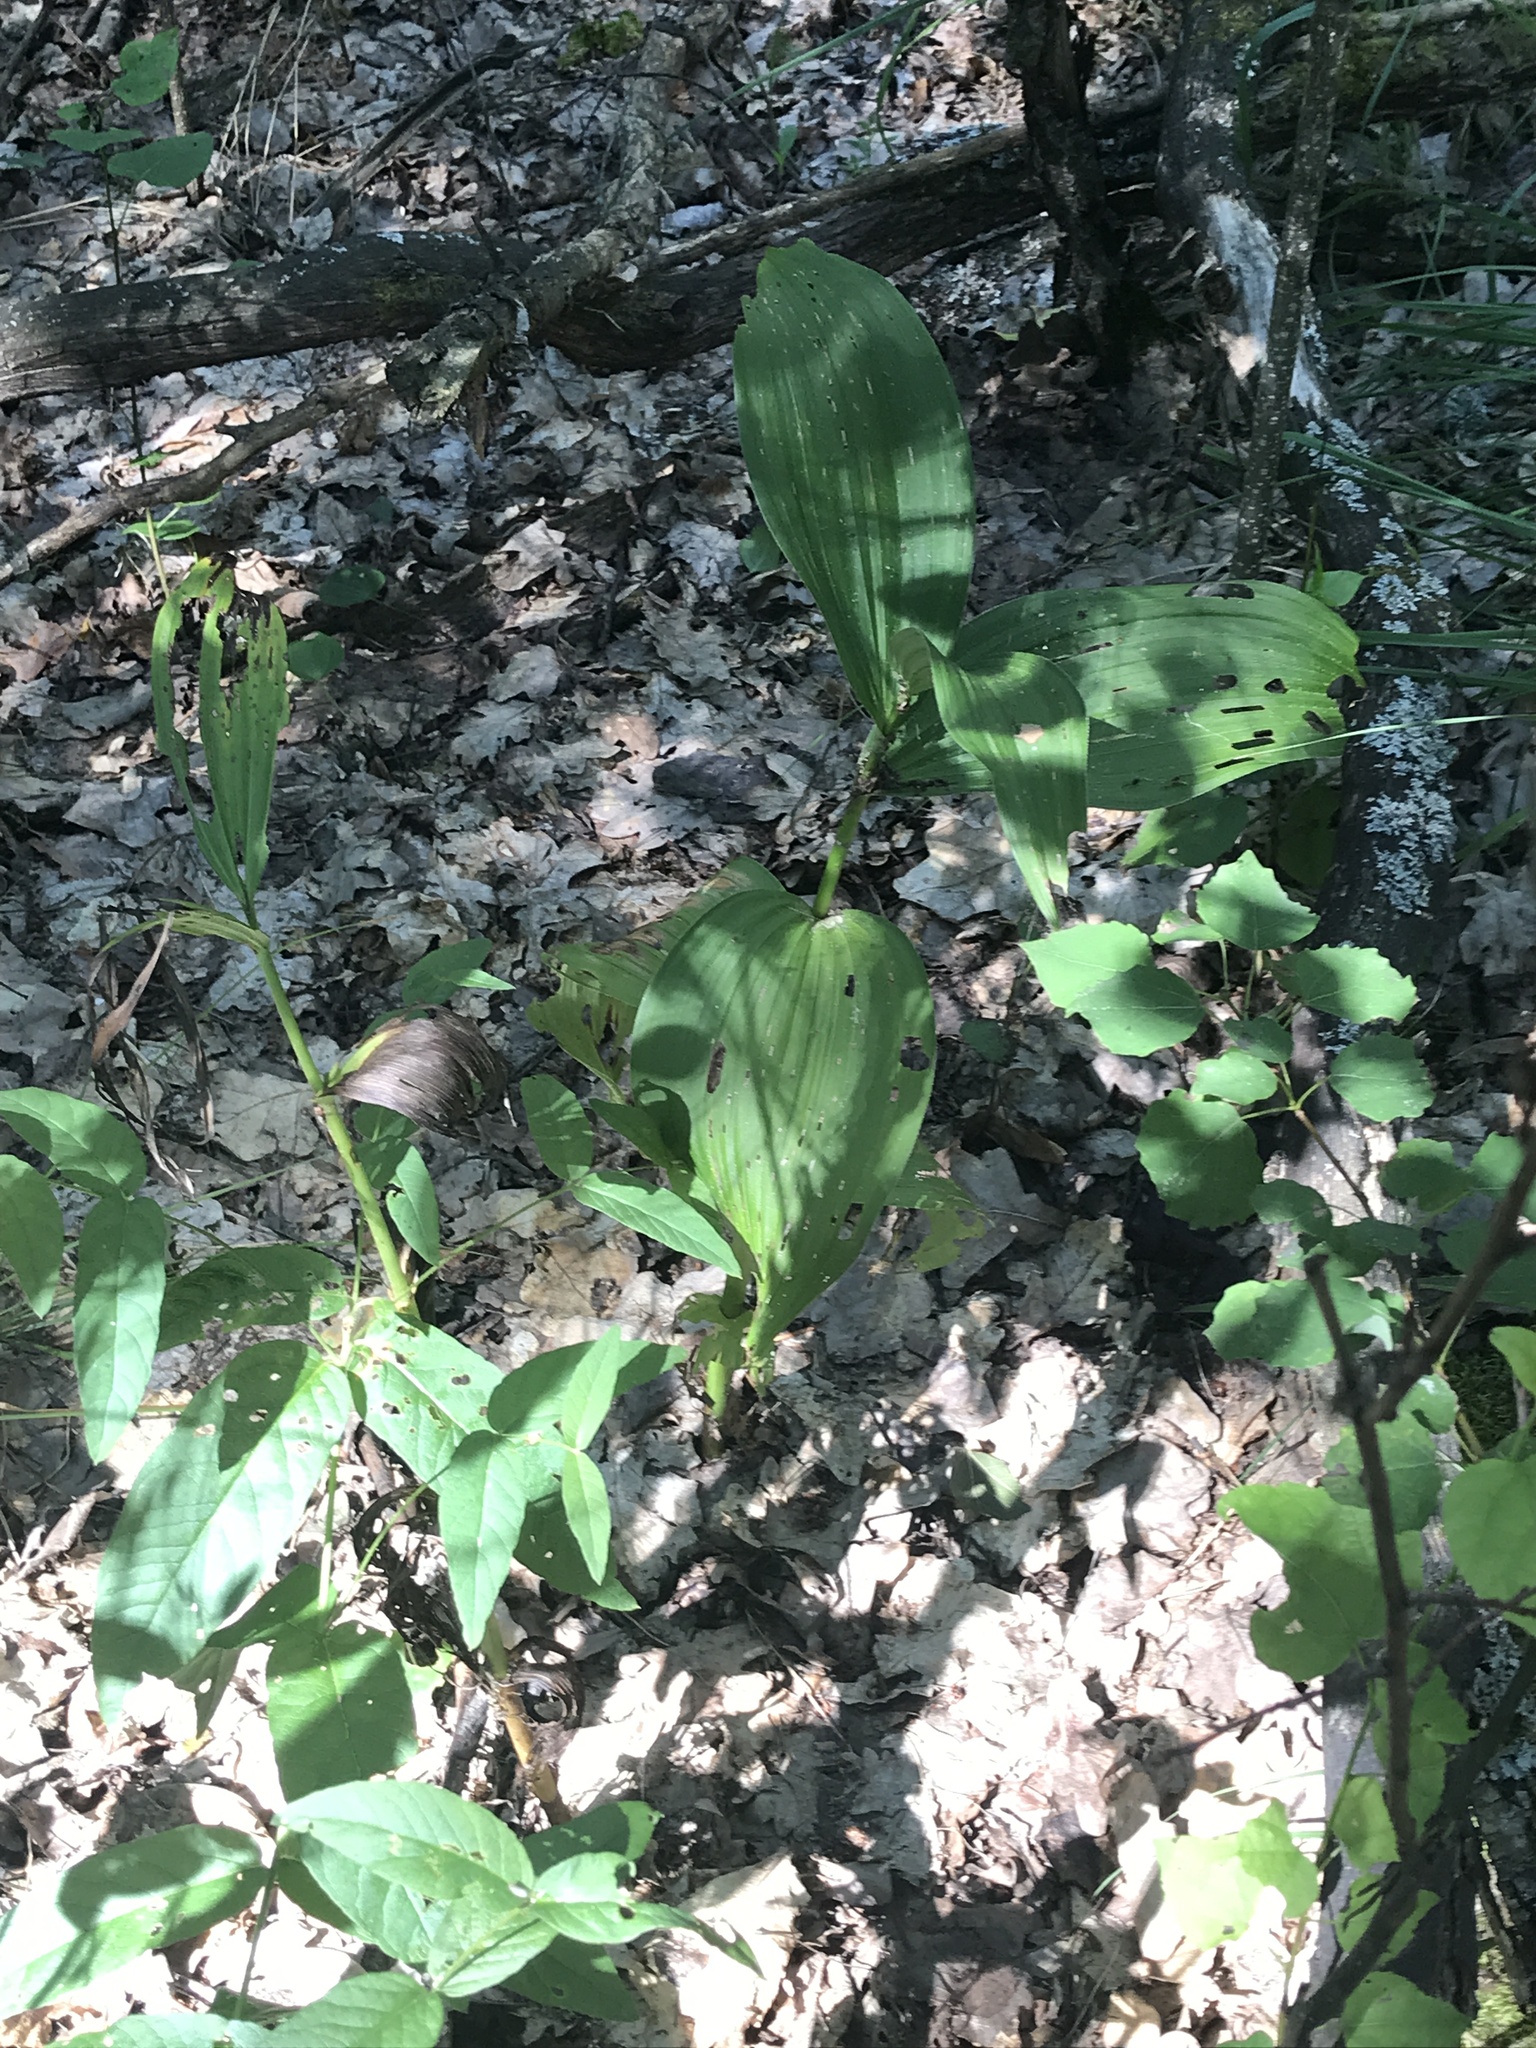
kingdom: Plantae
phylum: Tracheophyta
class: Liliopsida
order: Liliales
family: Melanthiaceae
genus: Veratrum
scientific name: Veratrum lobelianum
